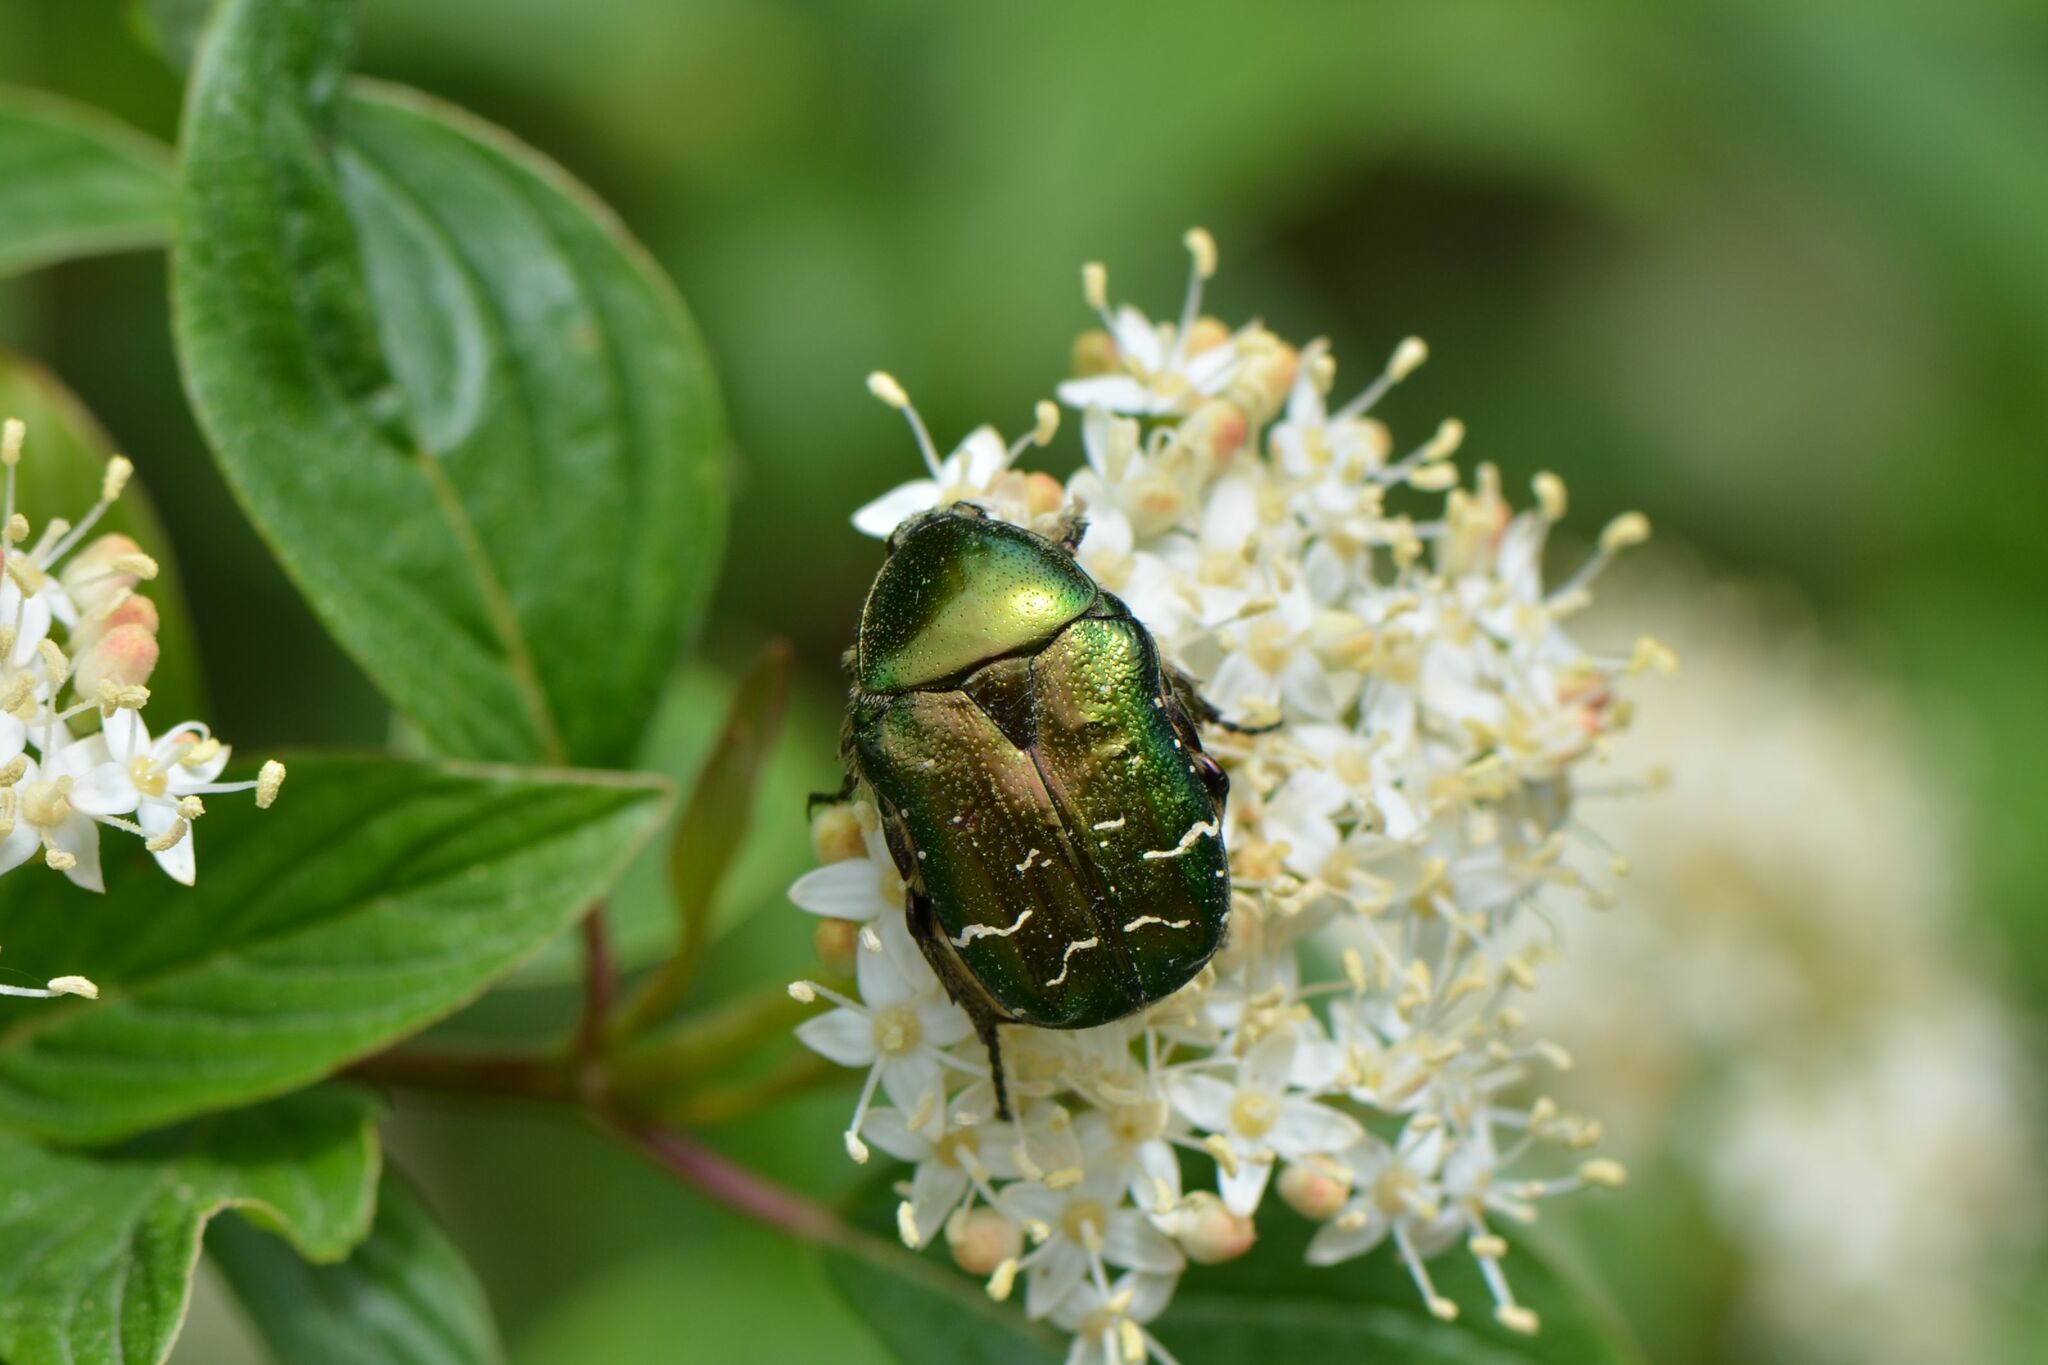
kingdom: Animalia
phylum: Arthropoda
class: Insecta
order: Coleoptera
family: Scarabaeidae
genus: Cetonia
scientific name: Cetonia aurata
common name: Rose chafer
